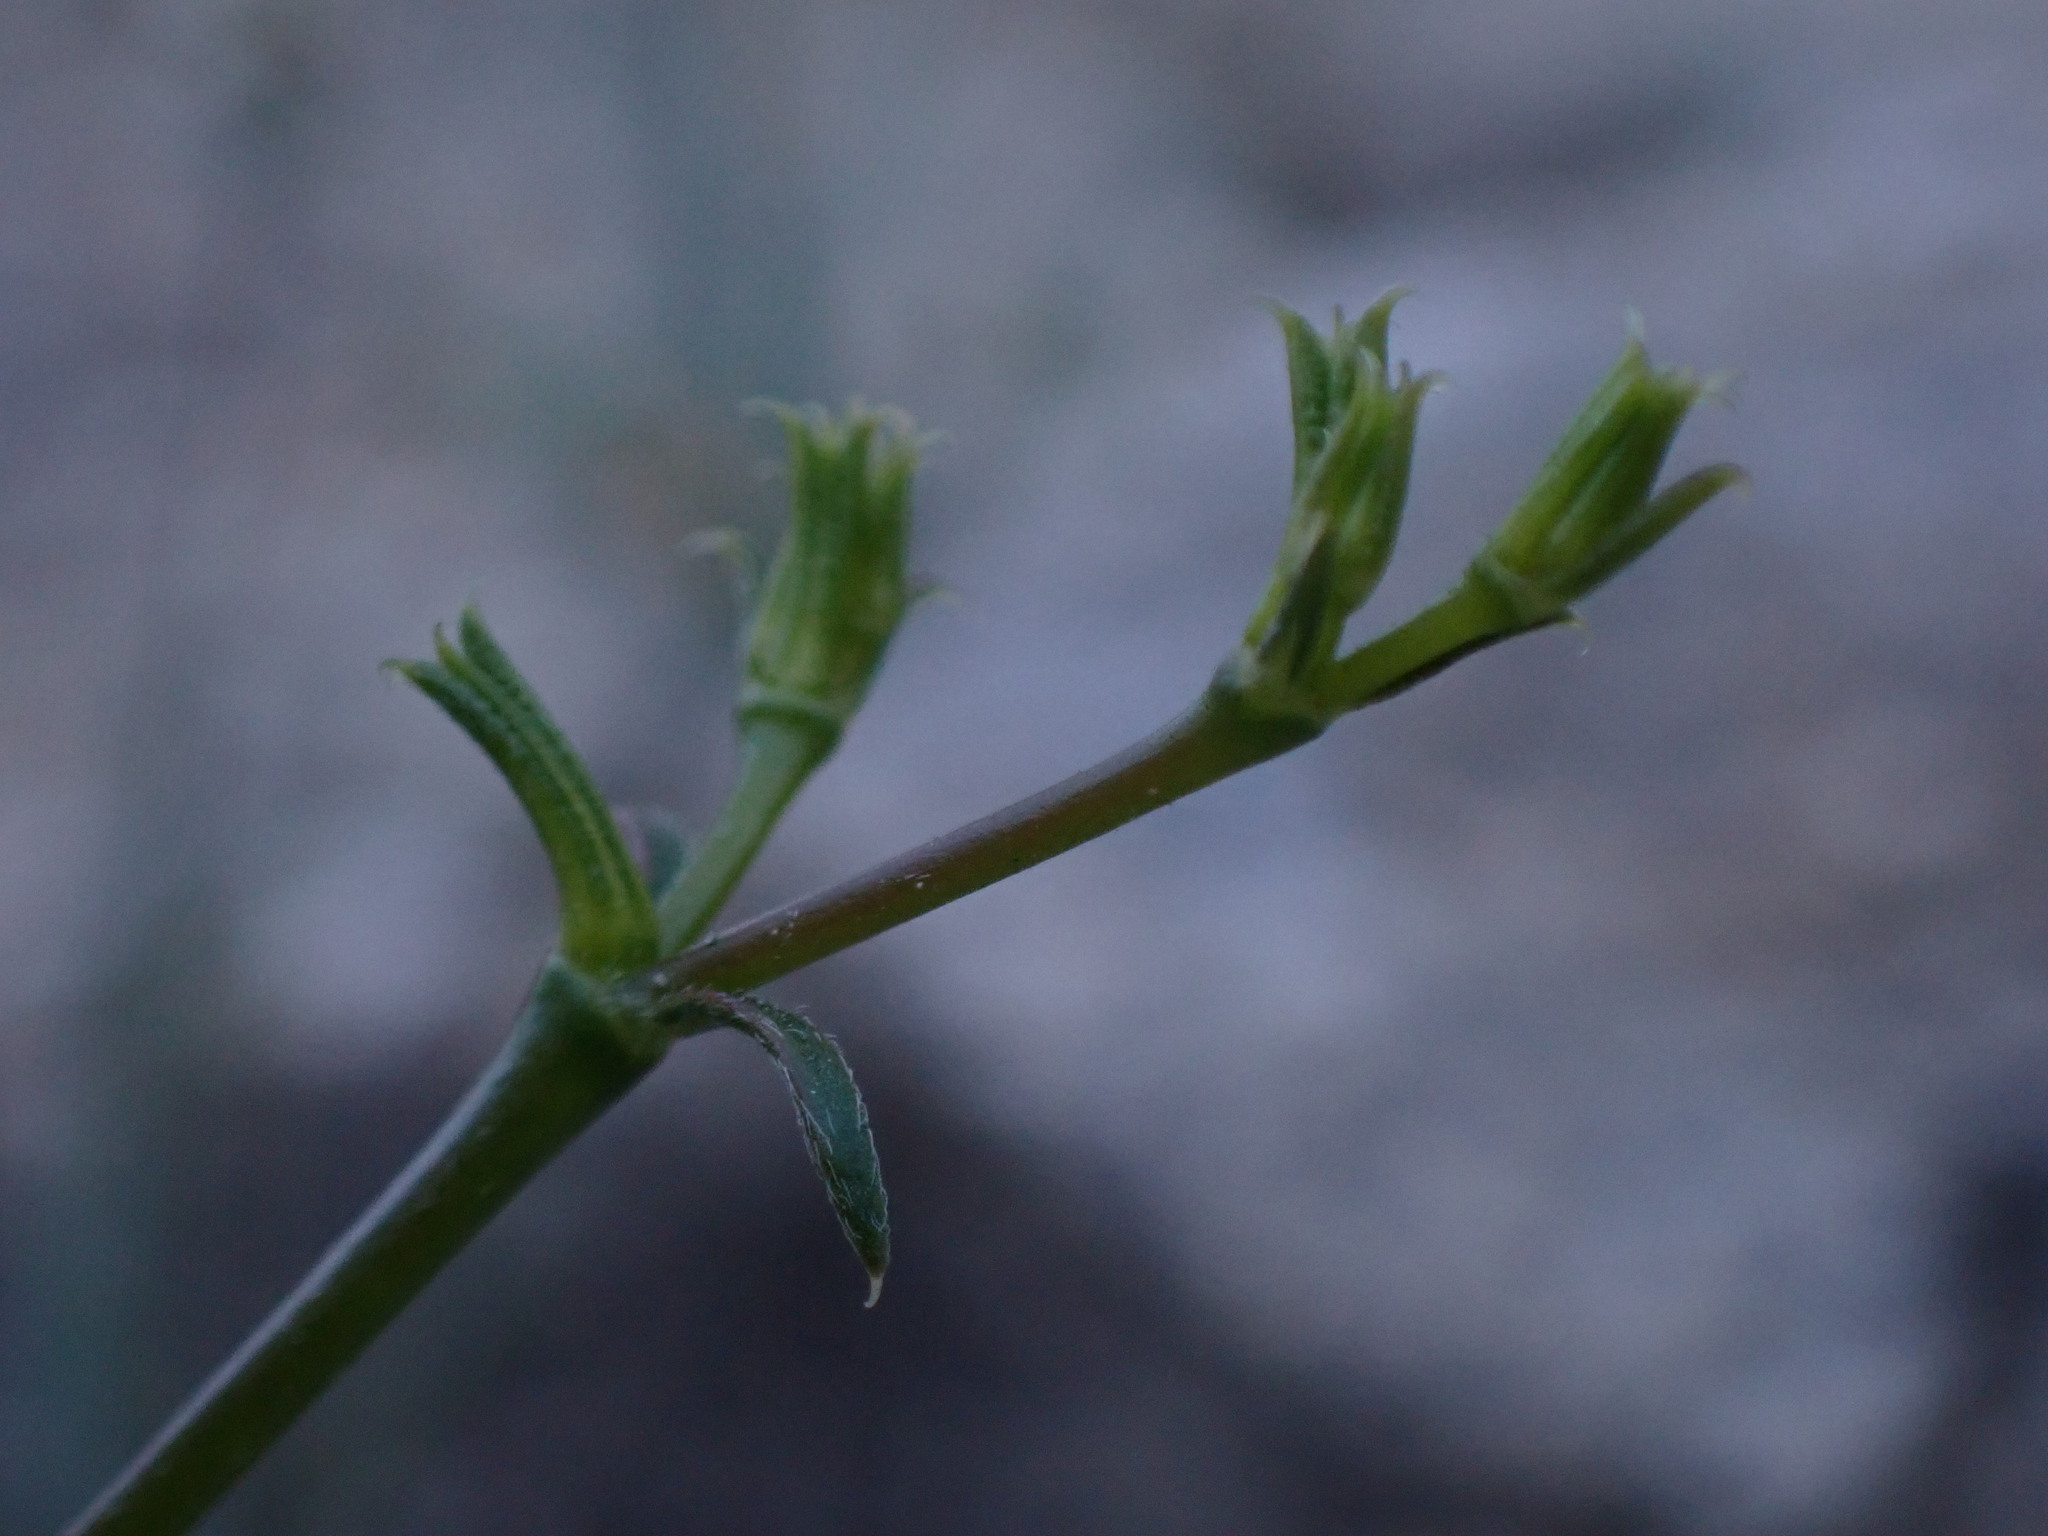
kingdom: Plantae
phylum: Tracheophyta
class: Magnoliopsida
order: Caryophyllales
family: Polygonaceae
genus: Chorizanthe
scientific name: Chorizanthe brevicornu
